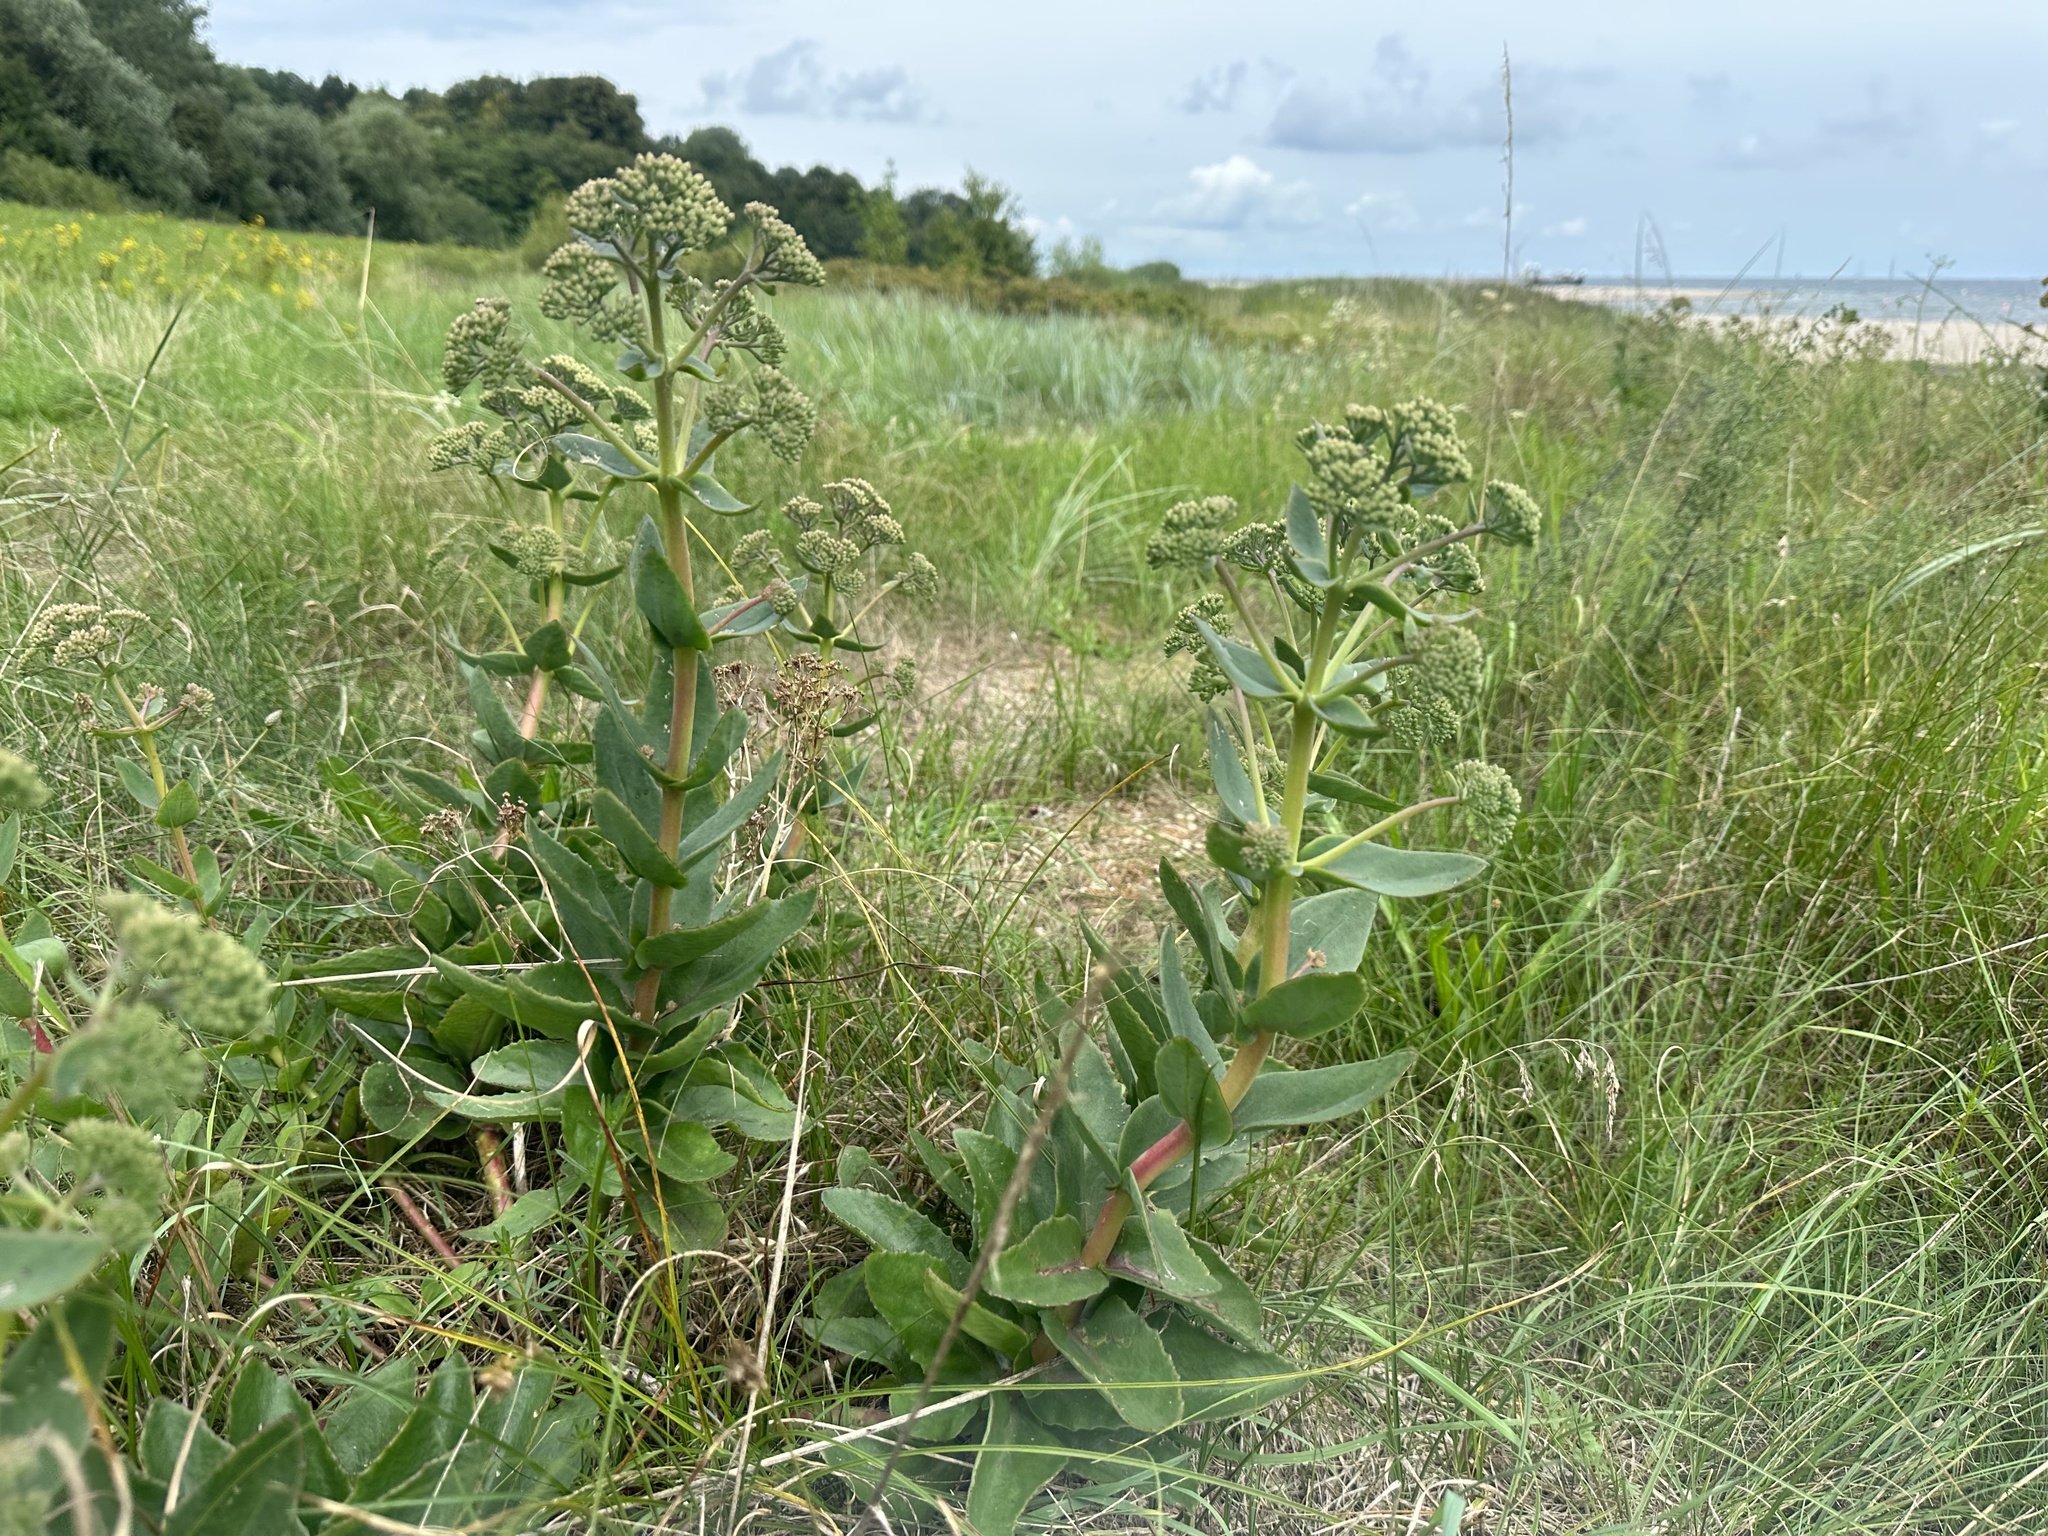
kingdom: Plantae
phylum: Tracheophyta
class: Magnoliopsida
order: Saxifragales
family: Crassulaceae
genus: Hylotelephium
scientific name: Hylotelephium maximum
